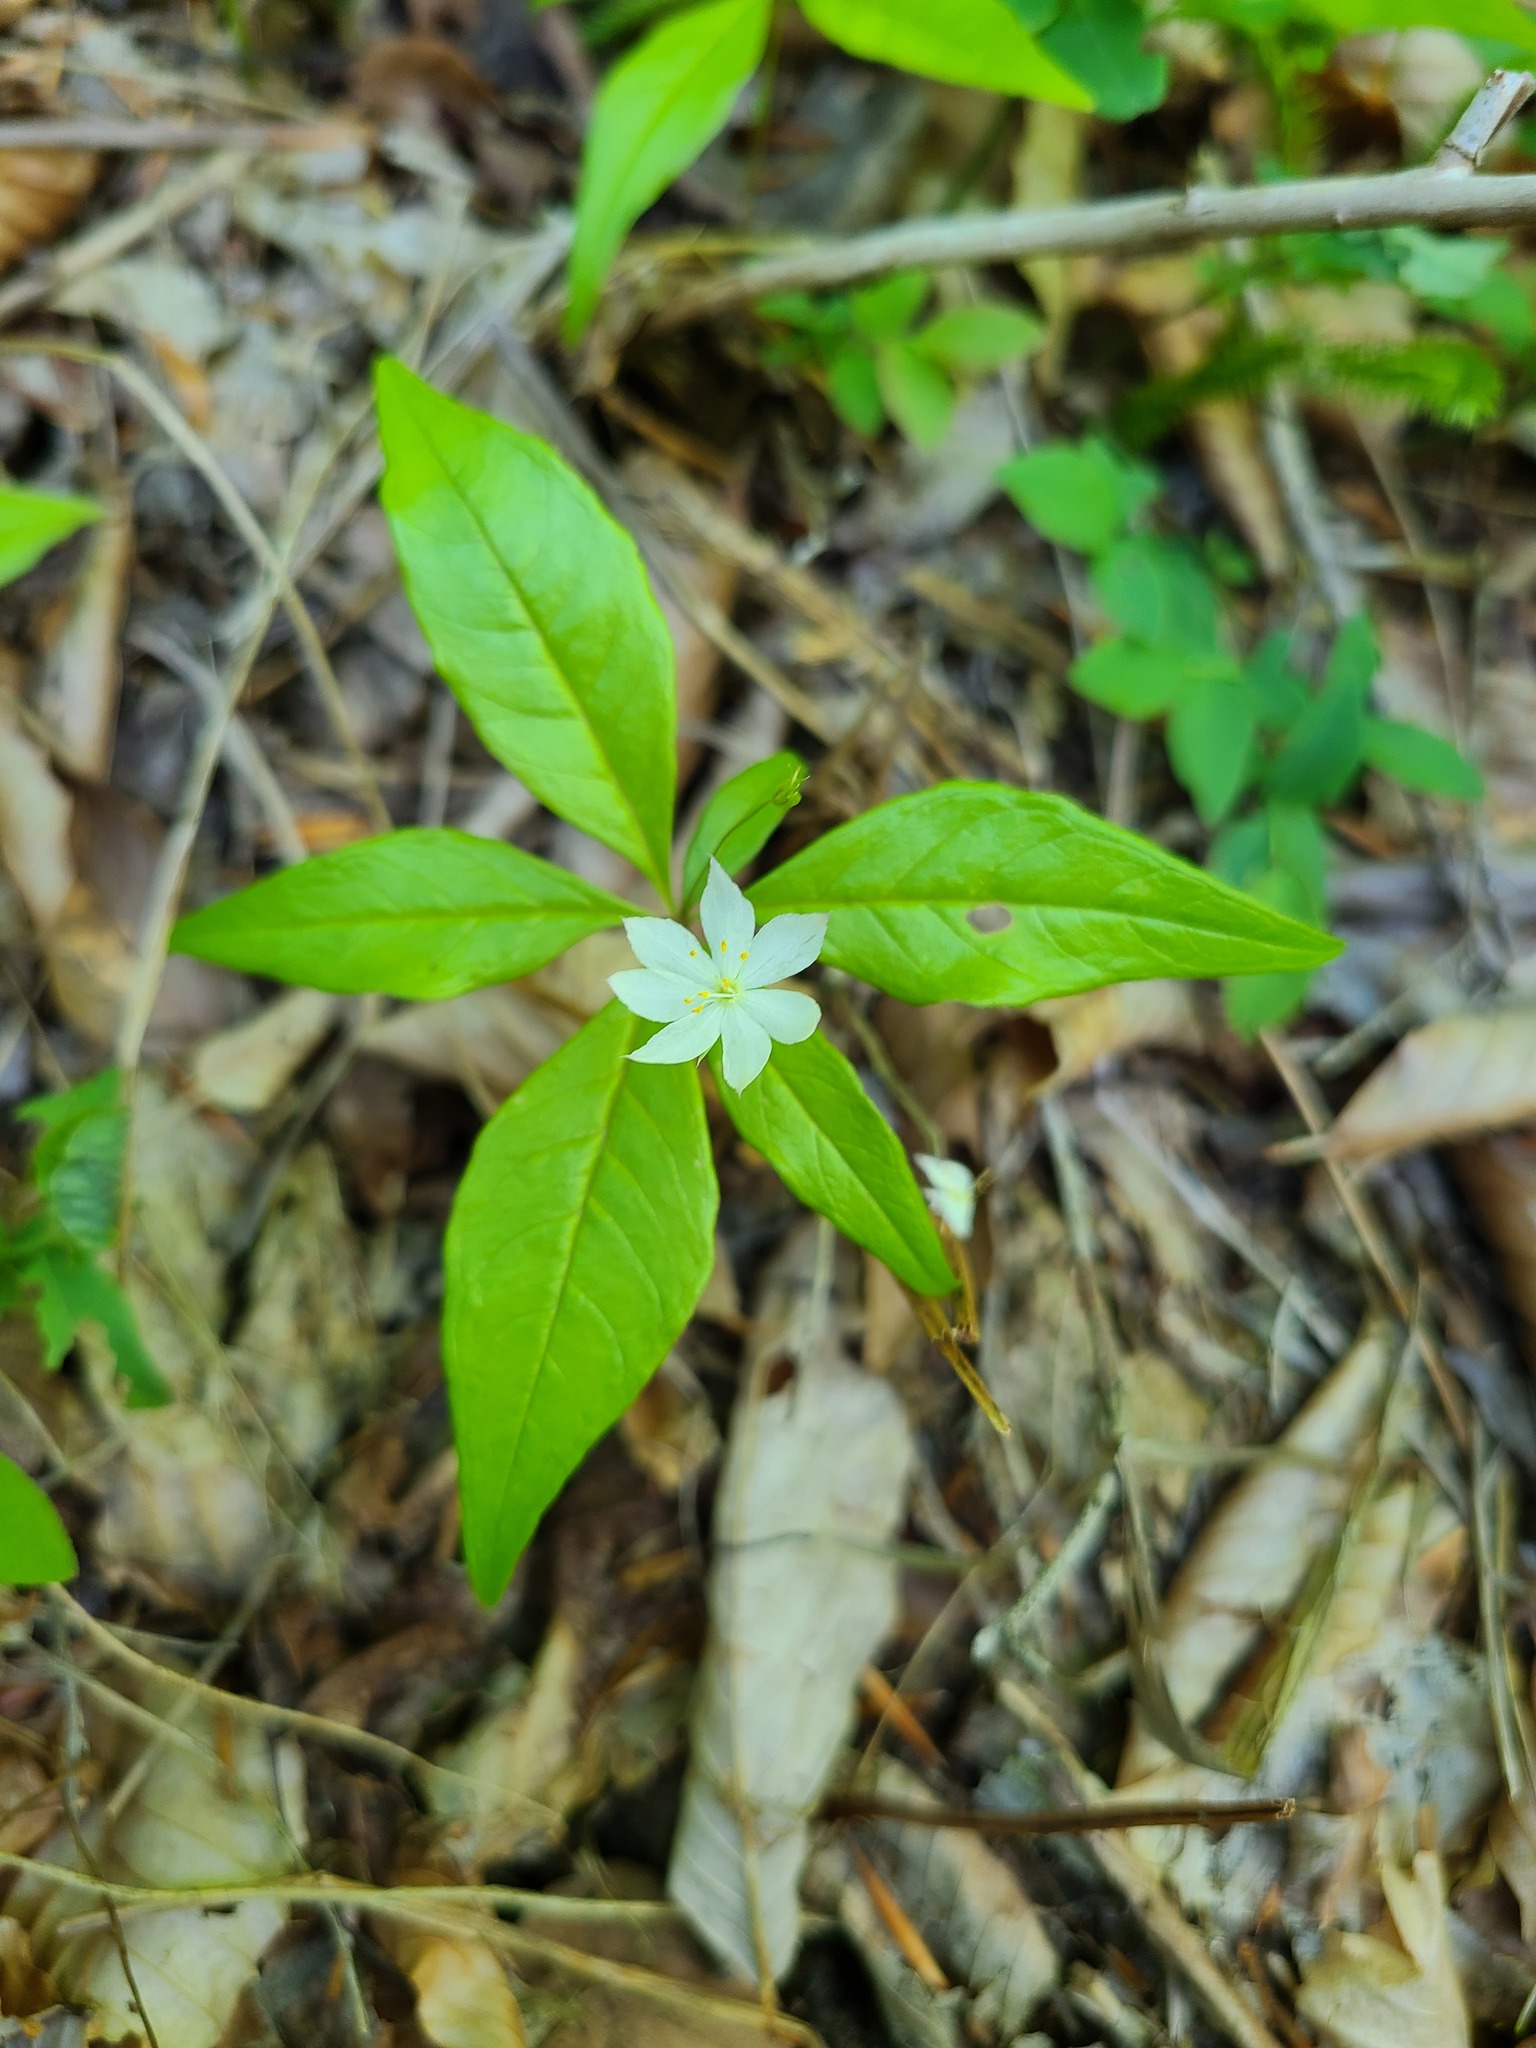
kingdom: Plantae
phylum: Tracheophyta
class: Magnoliopsida
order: Ericales
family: Primulaceae
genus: Lysimachia
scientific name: Lysimachia borealis
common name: American starflower
